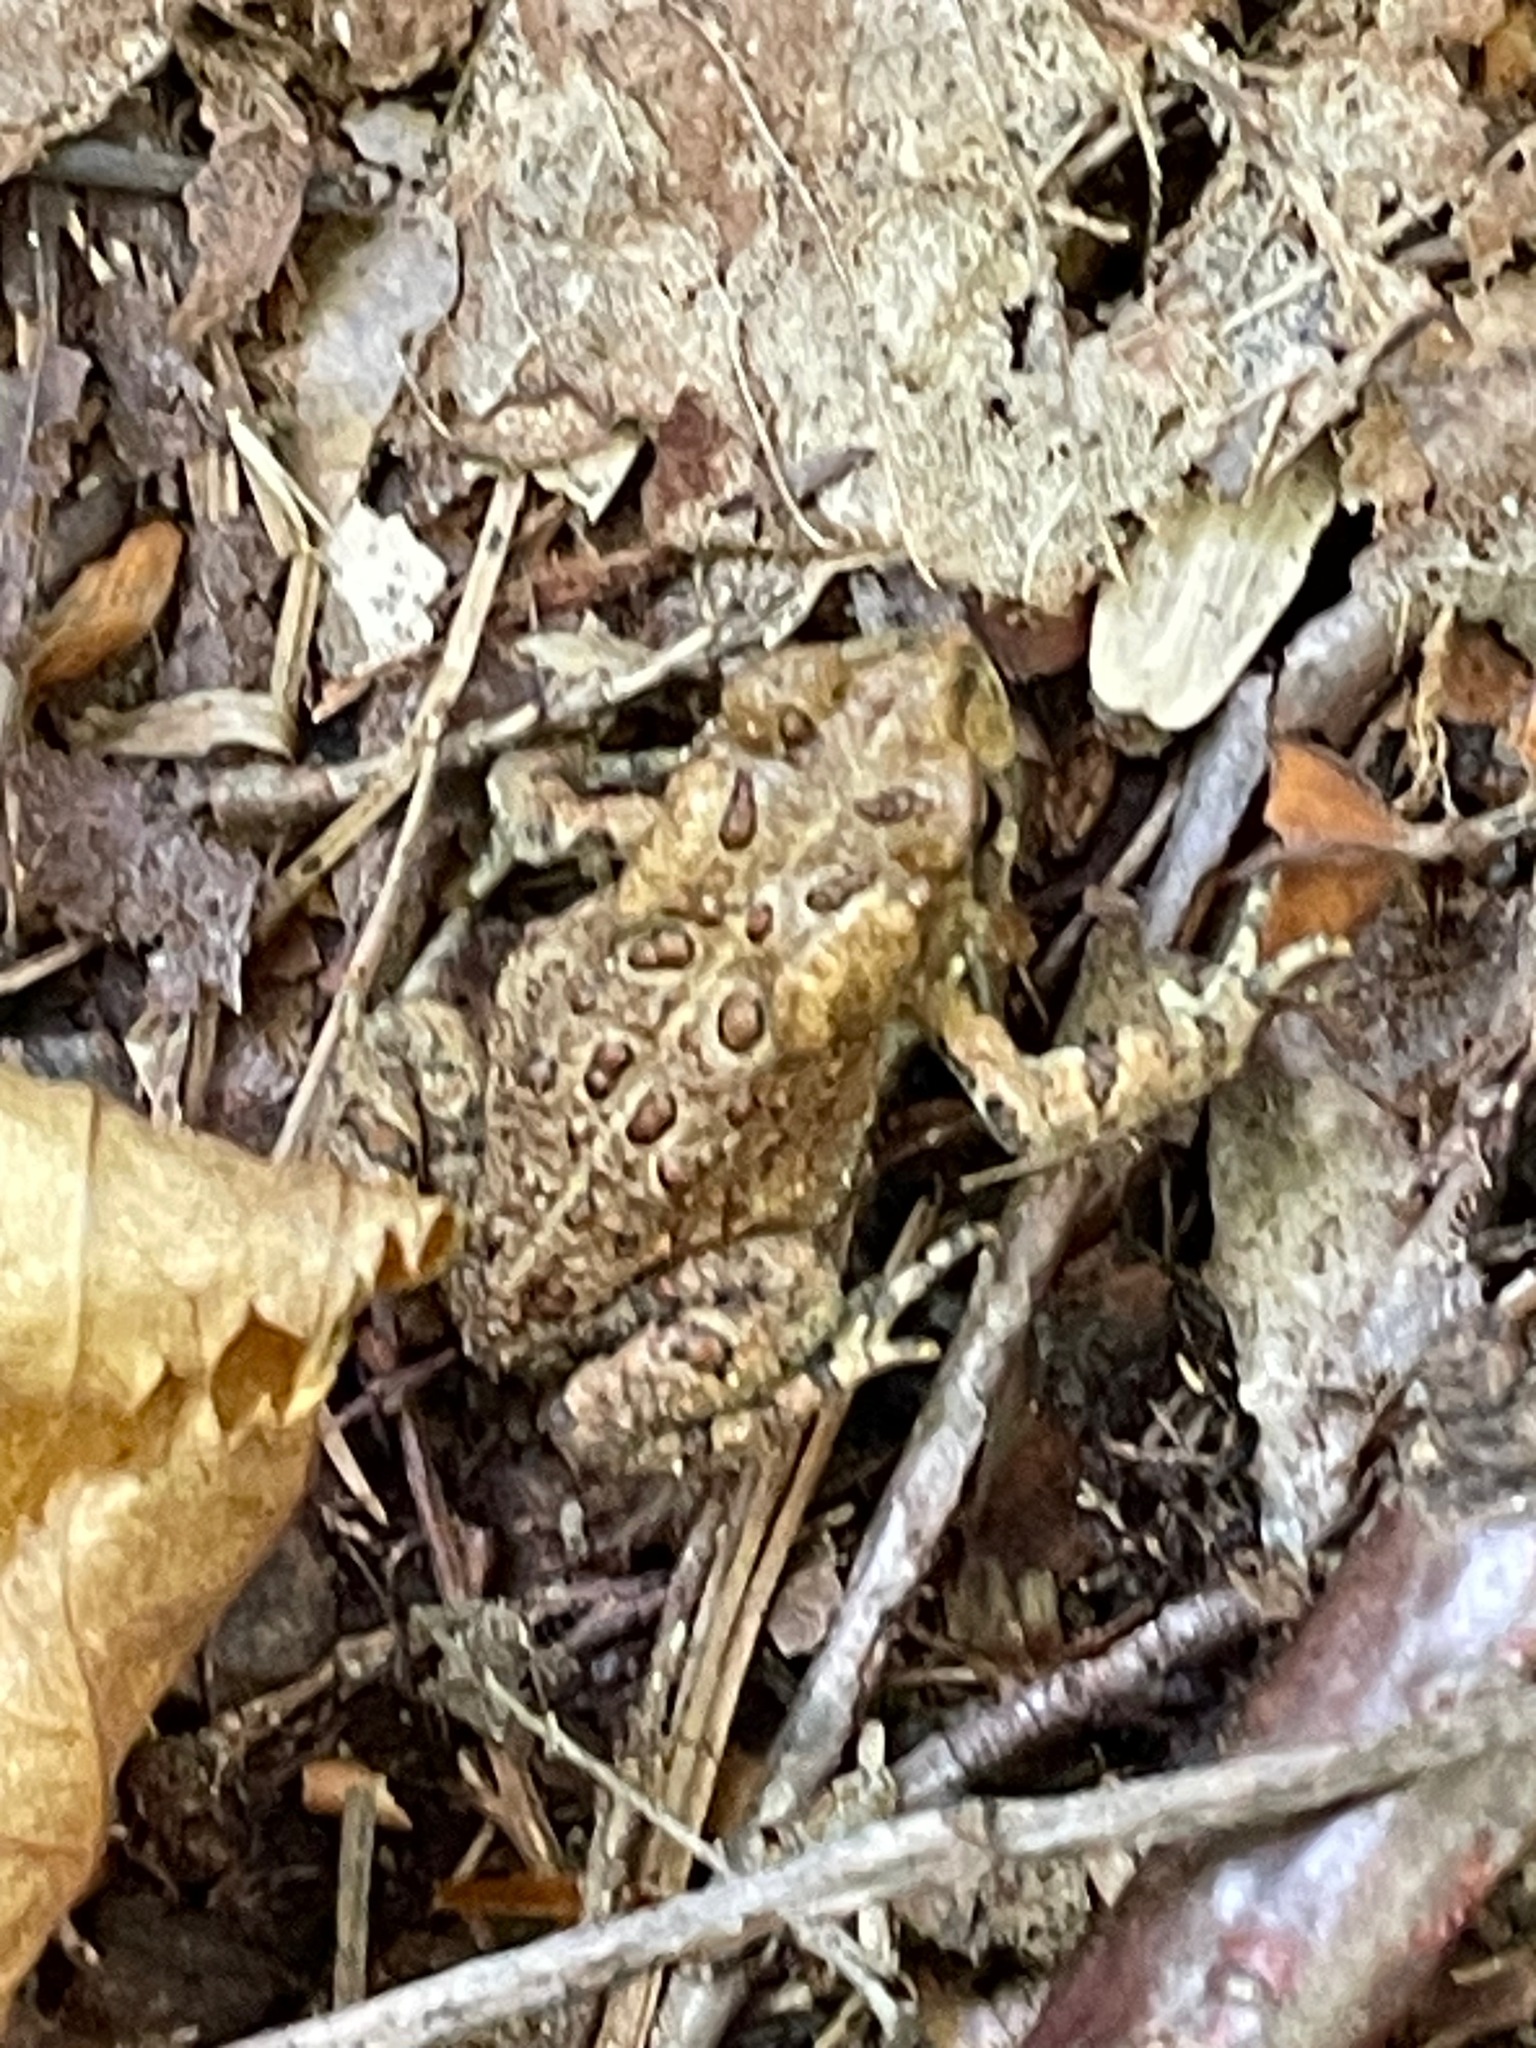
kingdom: Animalia
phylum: Chordata
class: Amphibia
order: Anura
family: Bufonidae
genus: Anaxyrus
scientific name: Anaxyrus americanus
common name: American toad
